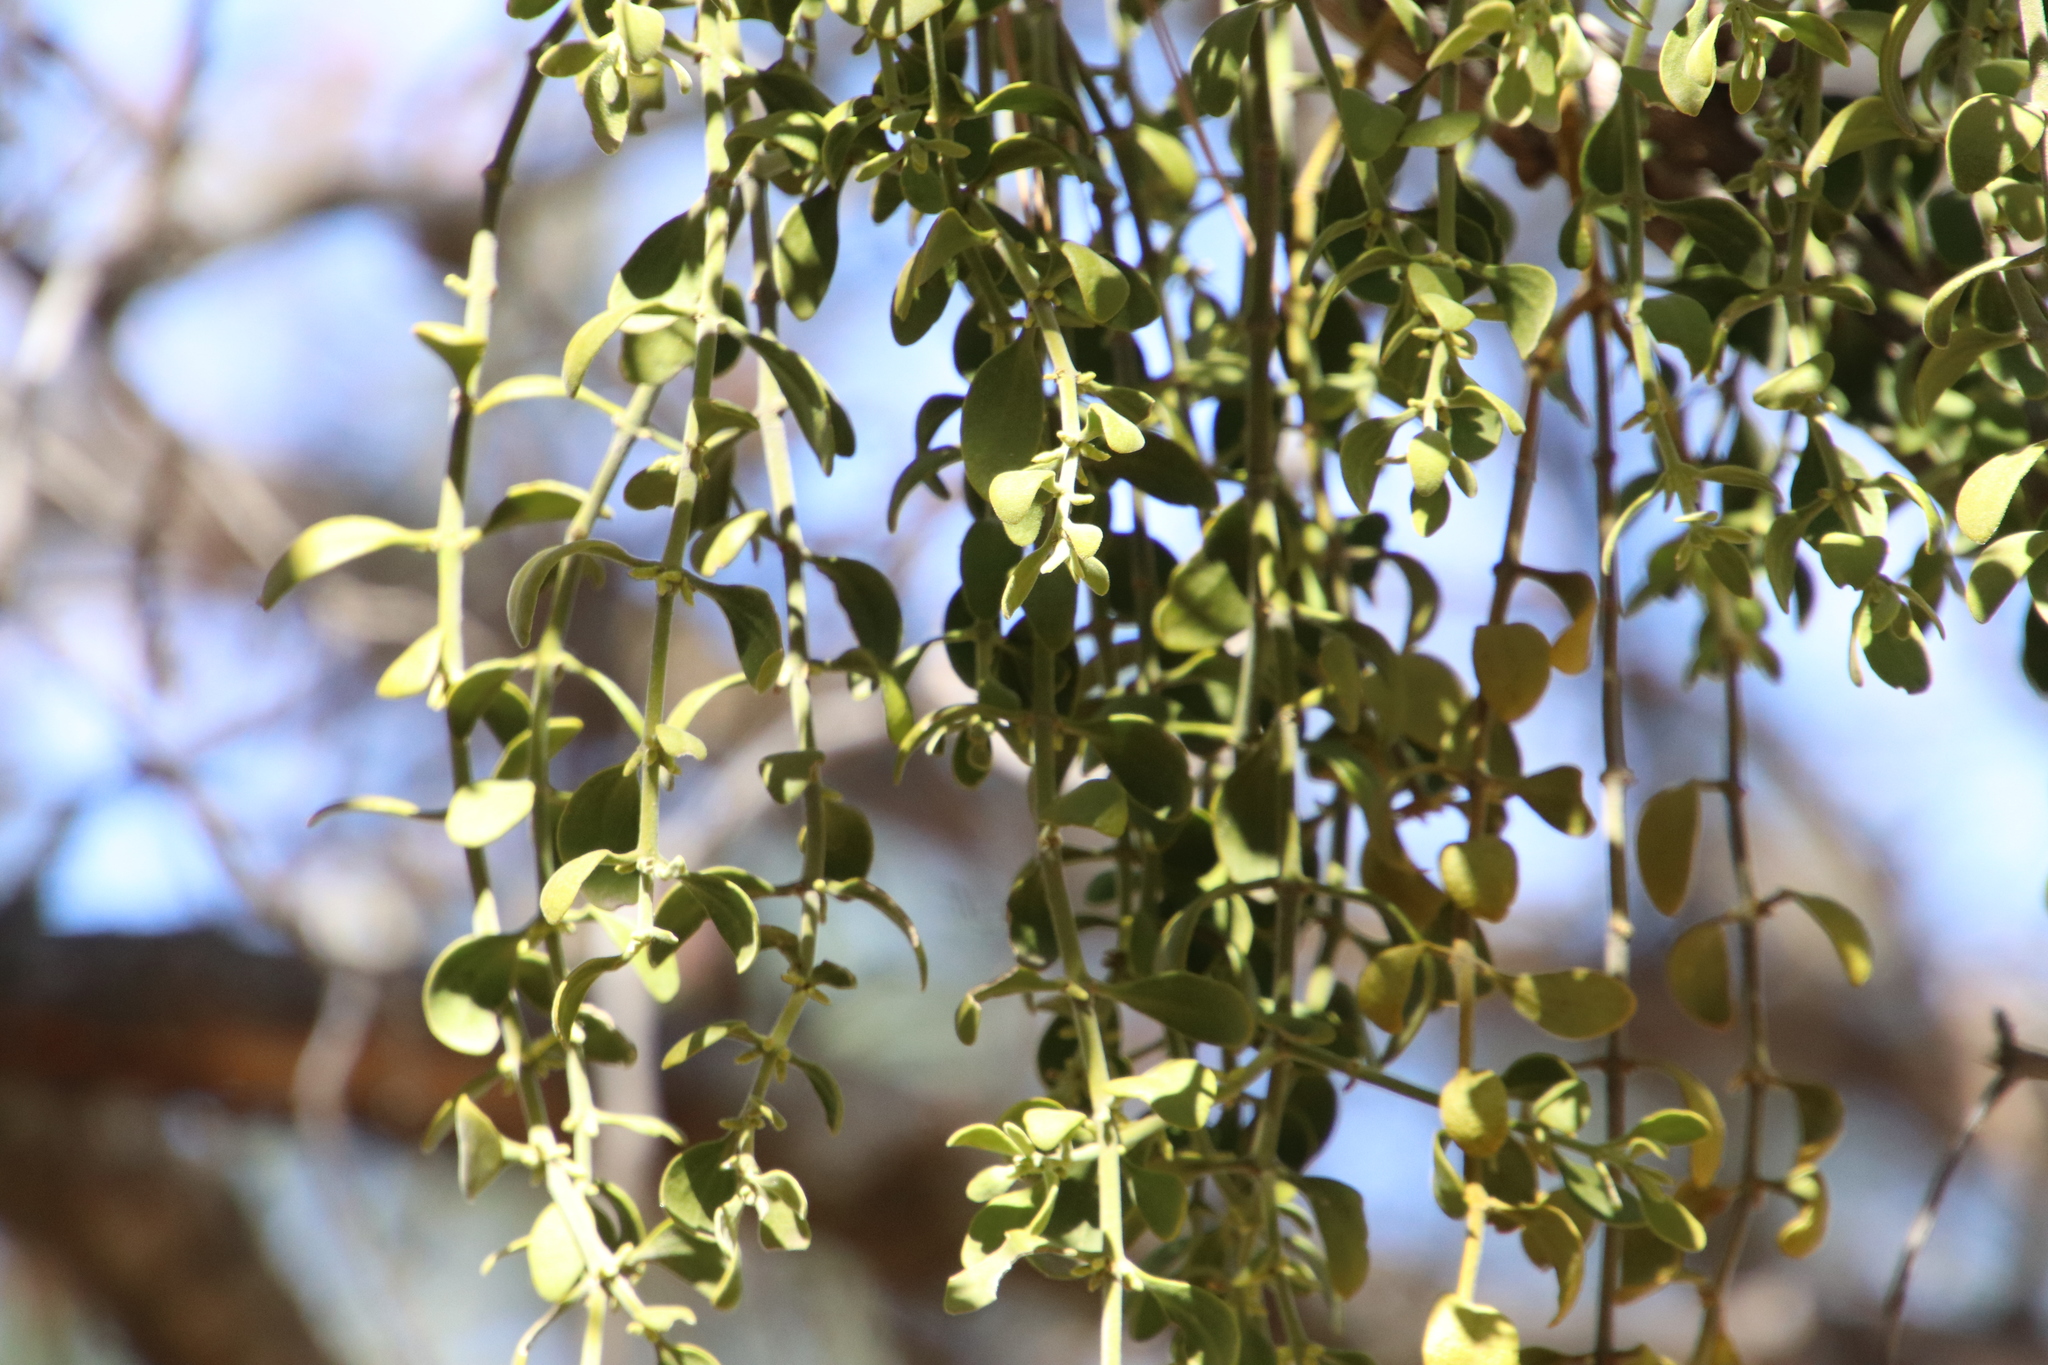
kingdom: Plantae
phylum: Tracheophyta
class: Magnoliopsida
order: Santalales
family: Viscaceae
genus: Phoradendron
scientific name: Phoradendron leucarpum
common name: Pacific mistletoe
